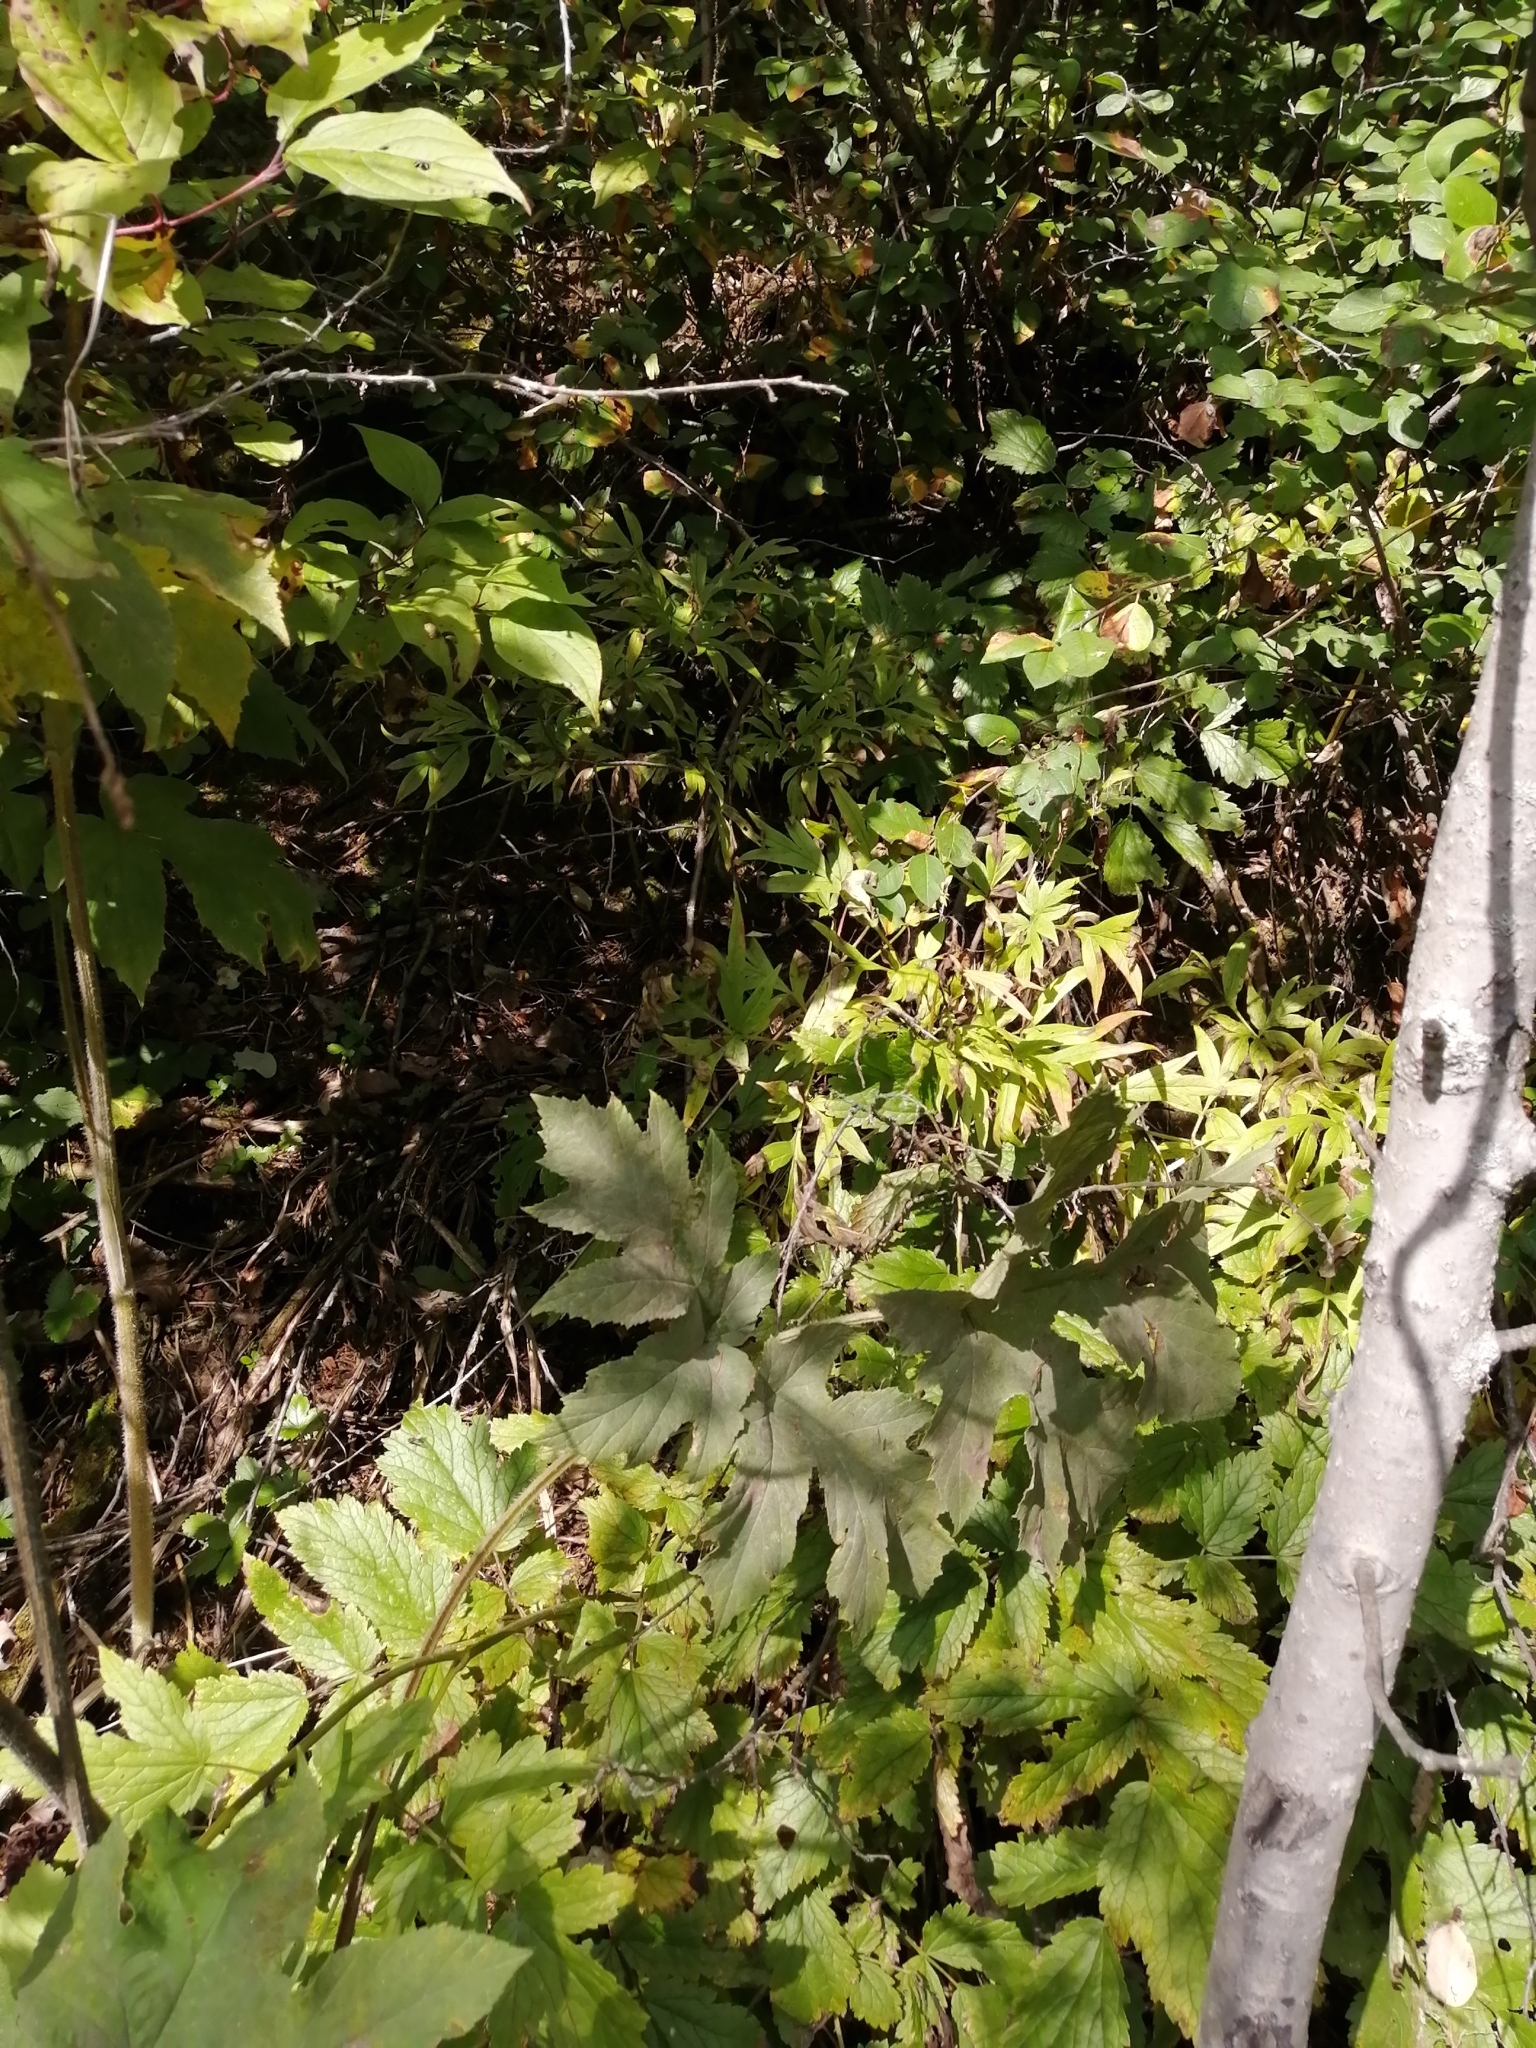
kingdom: Plantae
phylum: Tracheophyta
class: Magnoliopsida
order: Saxifragales
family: Paeoniaceae
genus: Paeonia
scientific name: Paeonia anomala
